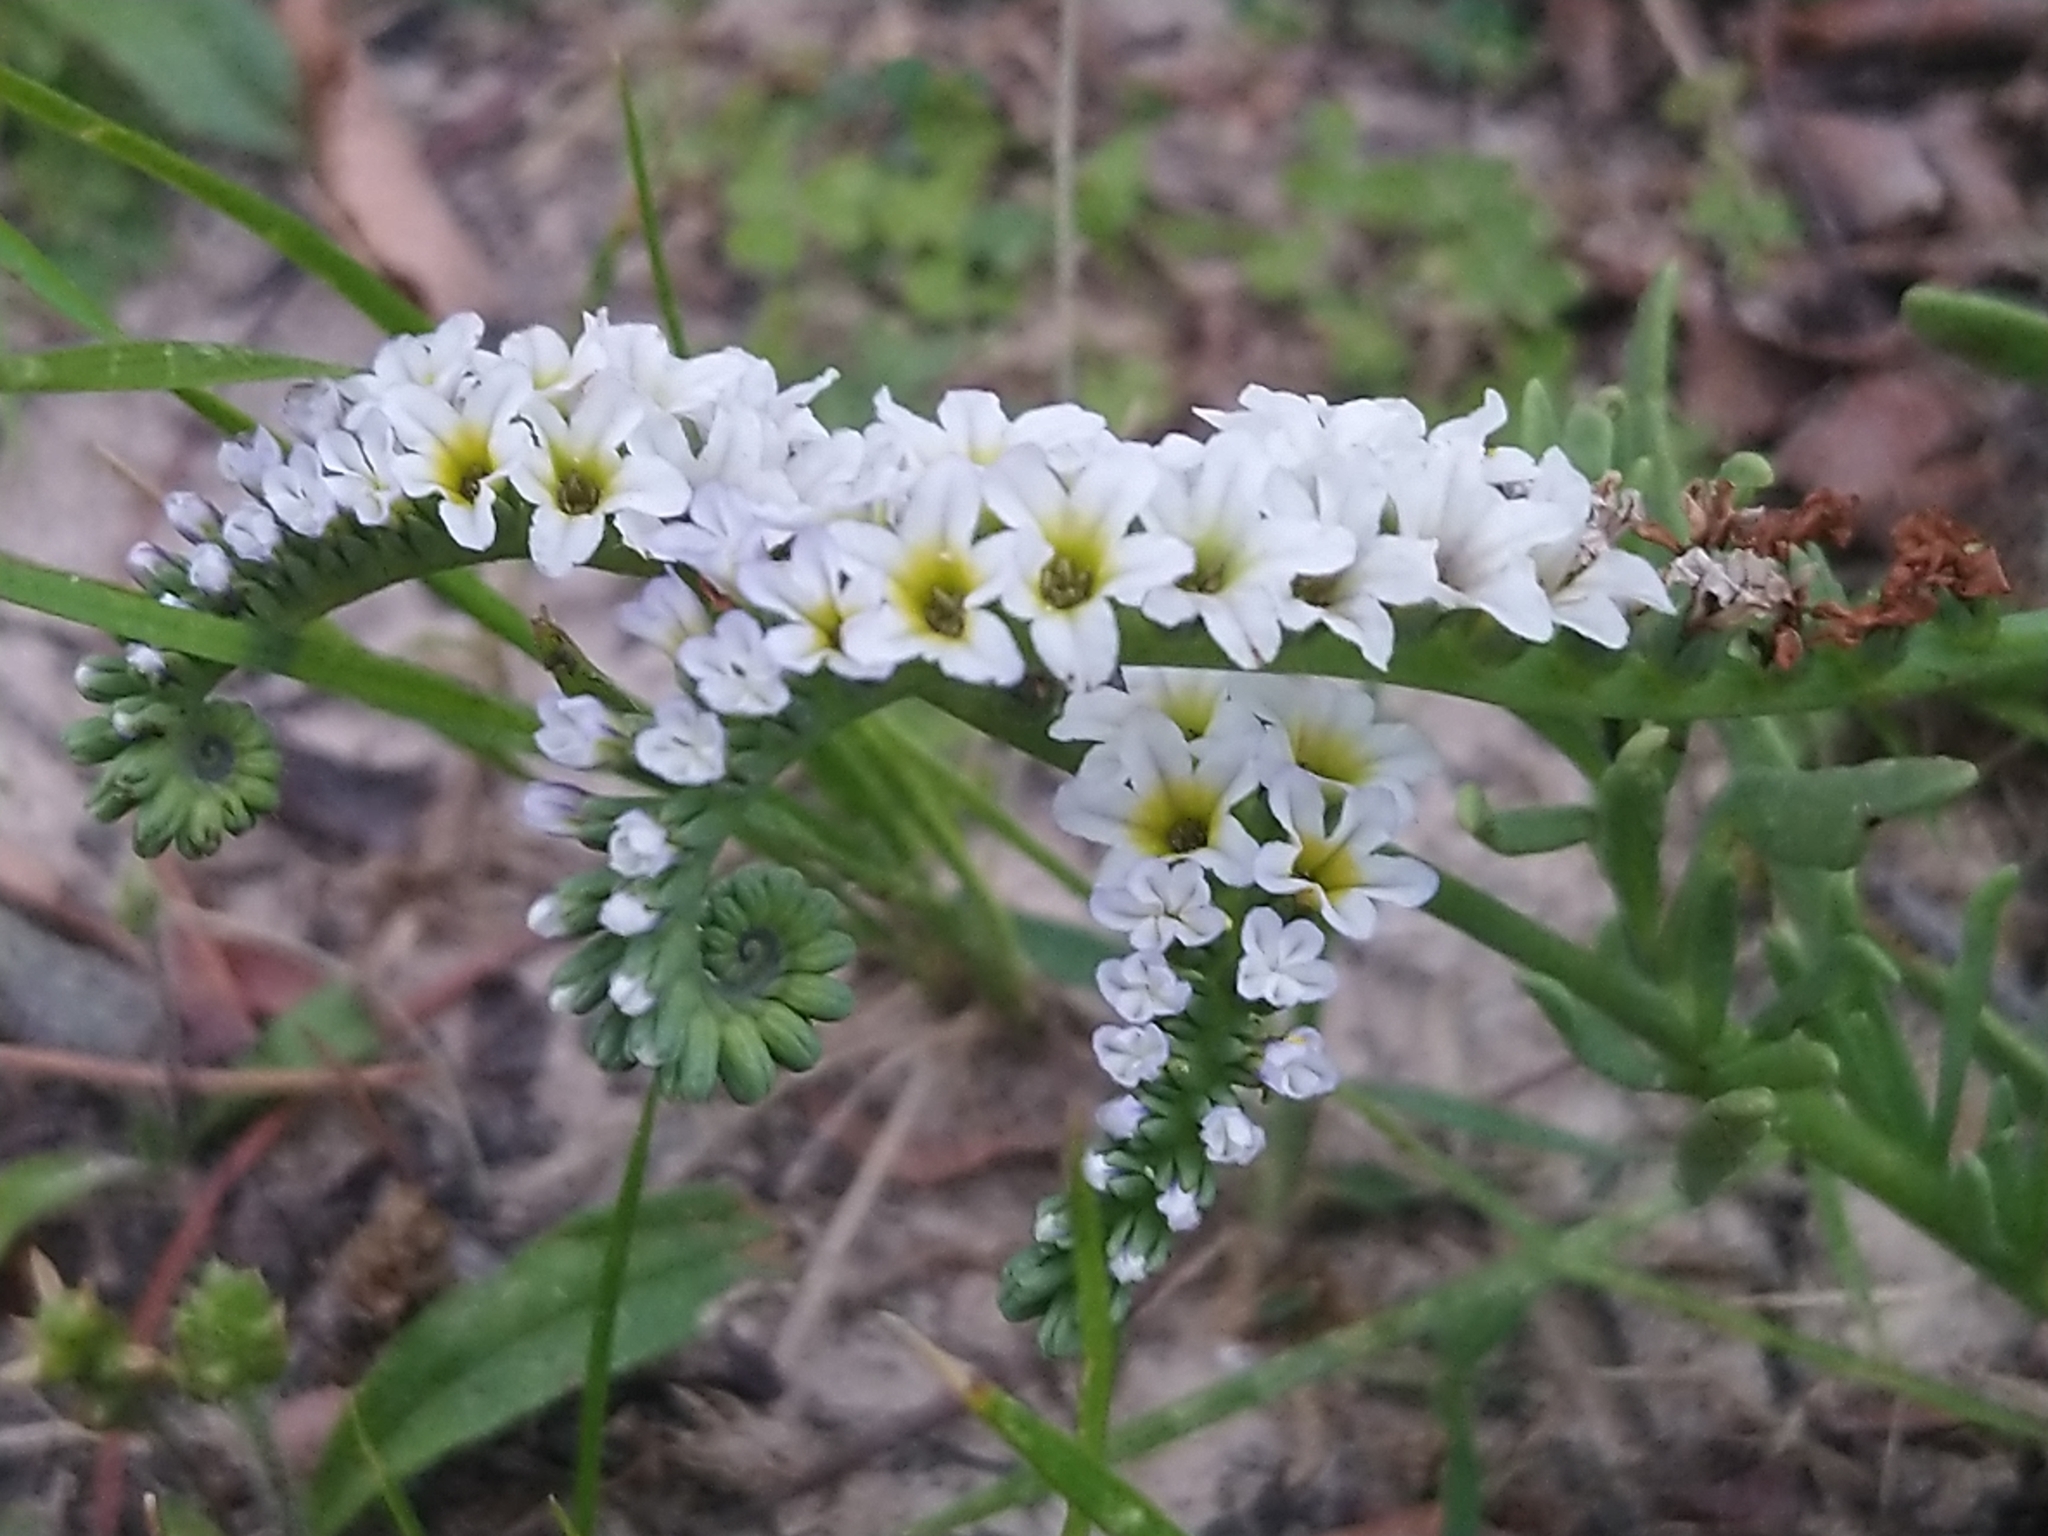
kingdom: Plantae
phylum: Tracheophyta
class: Magnoliopsida
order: Boraginales
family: Heliotropiaceae
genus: Heliotropium
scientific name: Heliotropium curassavicum
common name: Seaside heliotrope
